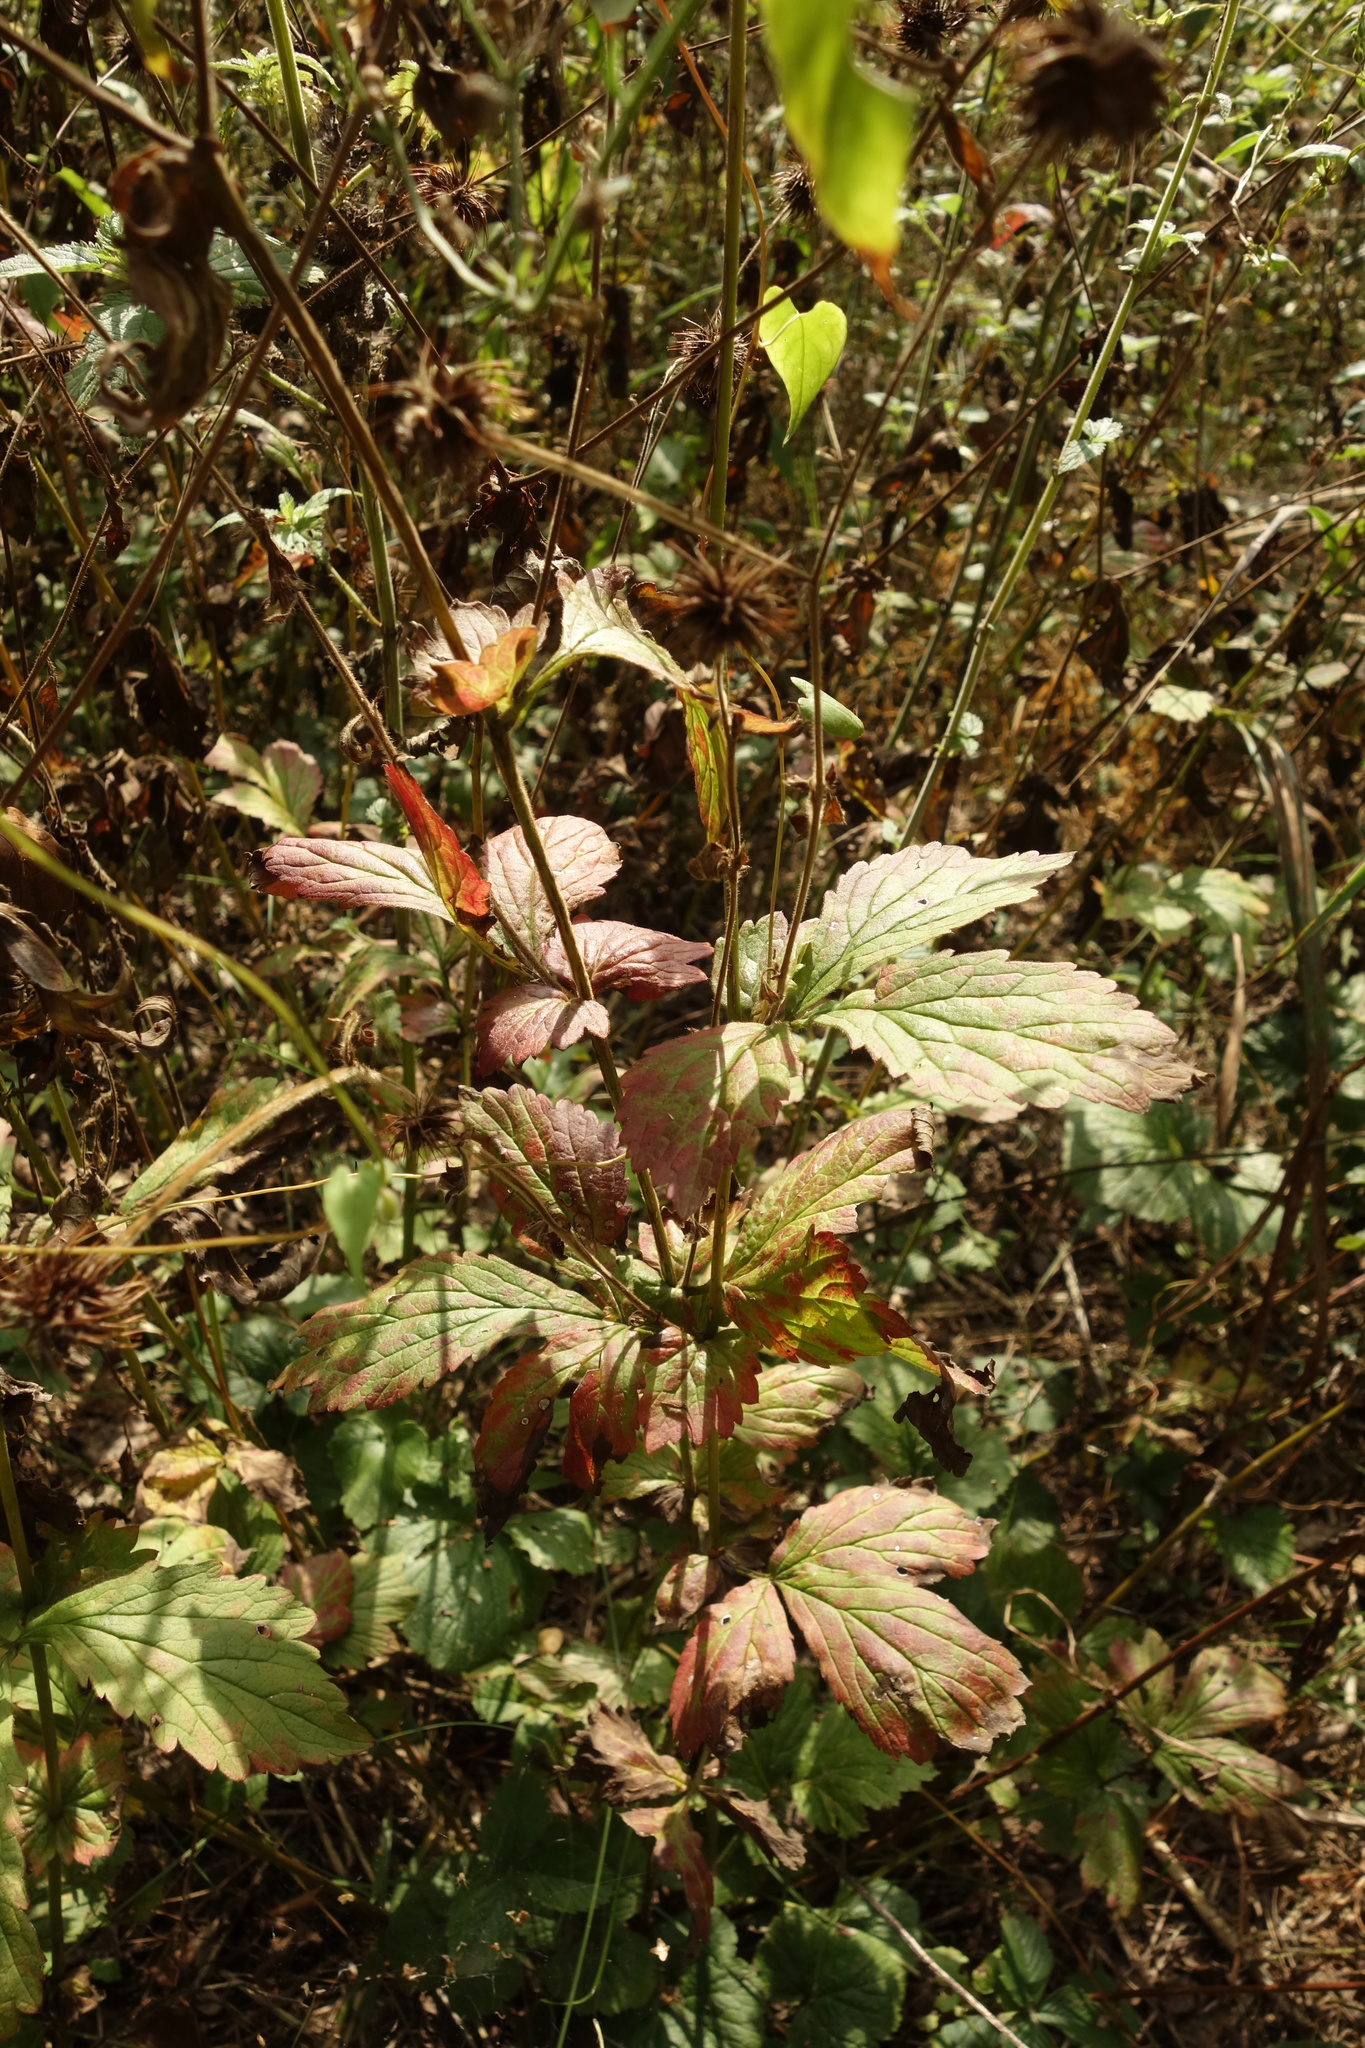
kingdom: Plantae
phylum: Tracheophyta
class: Magnoliopsida
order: Rosales
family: Rosaceae
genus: Geum
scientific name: Geum urbanum
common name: Wood avens
